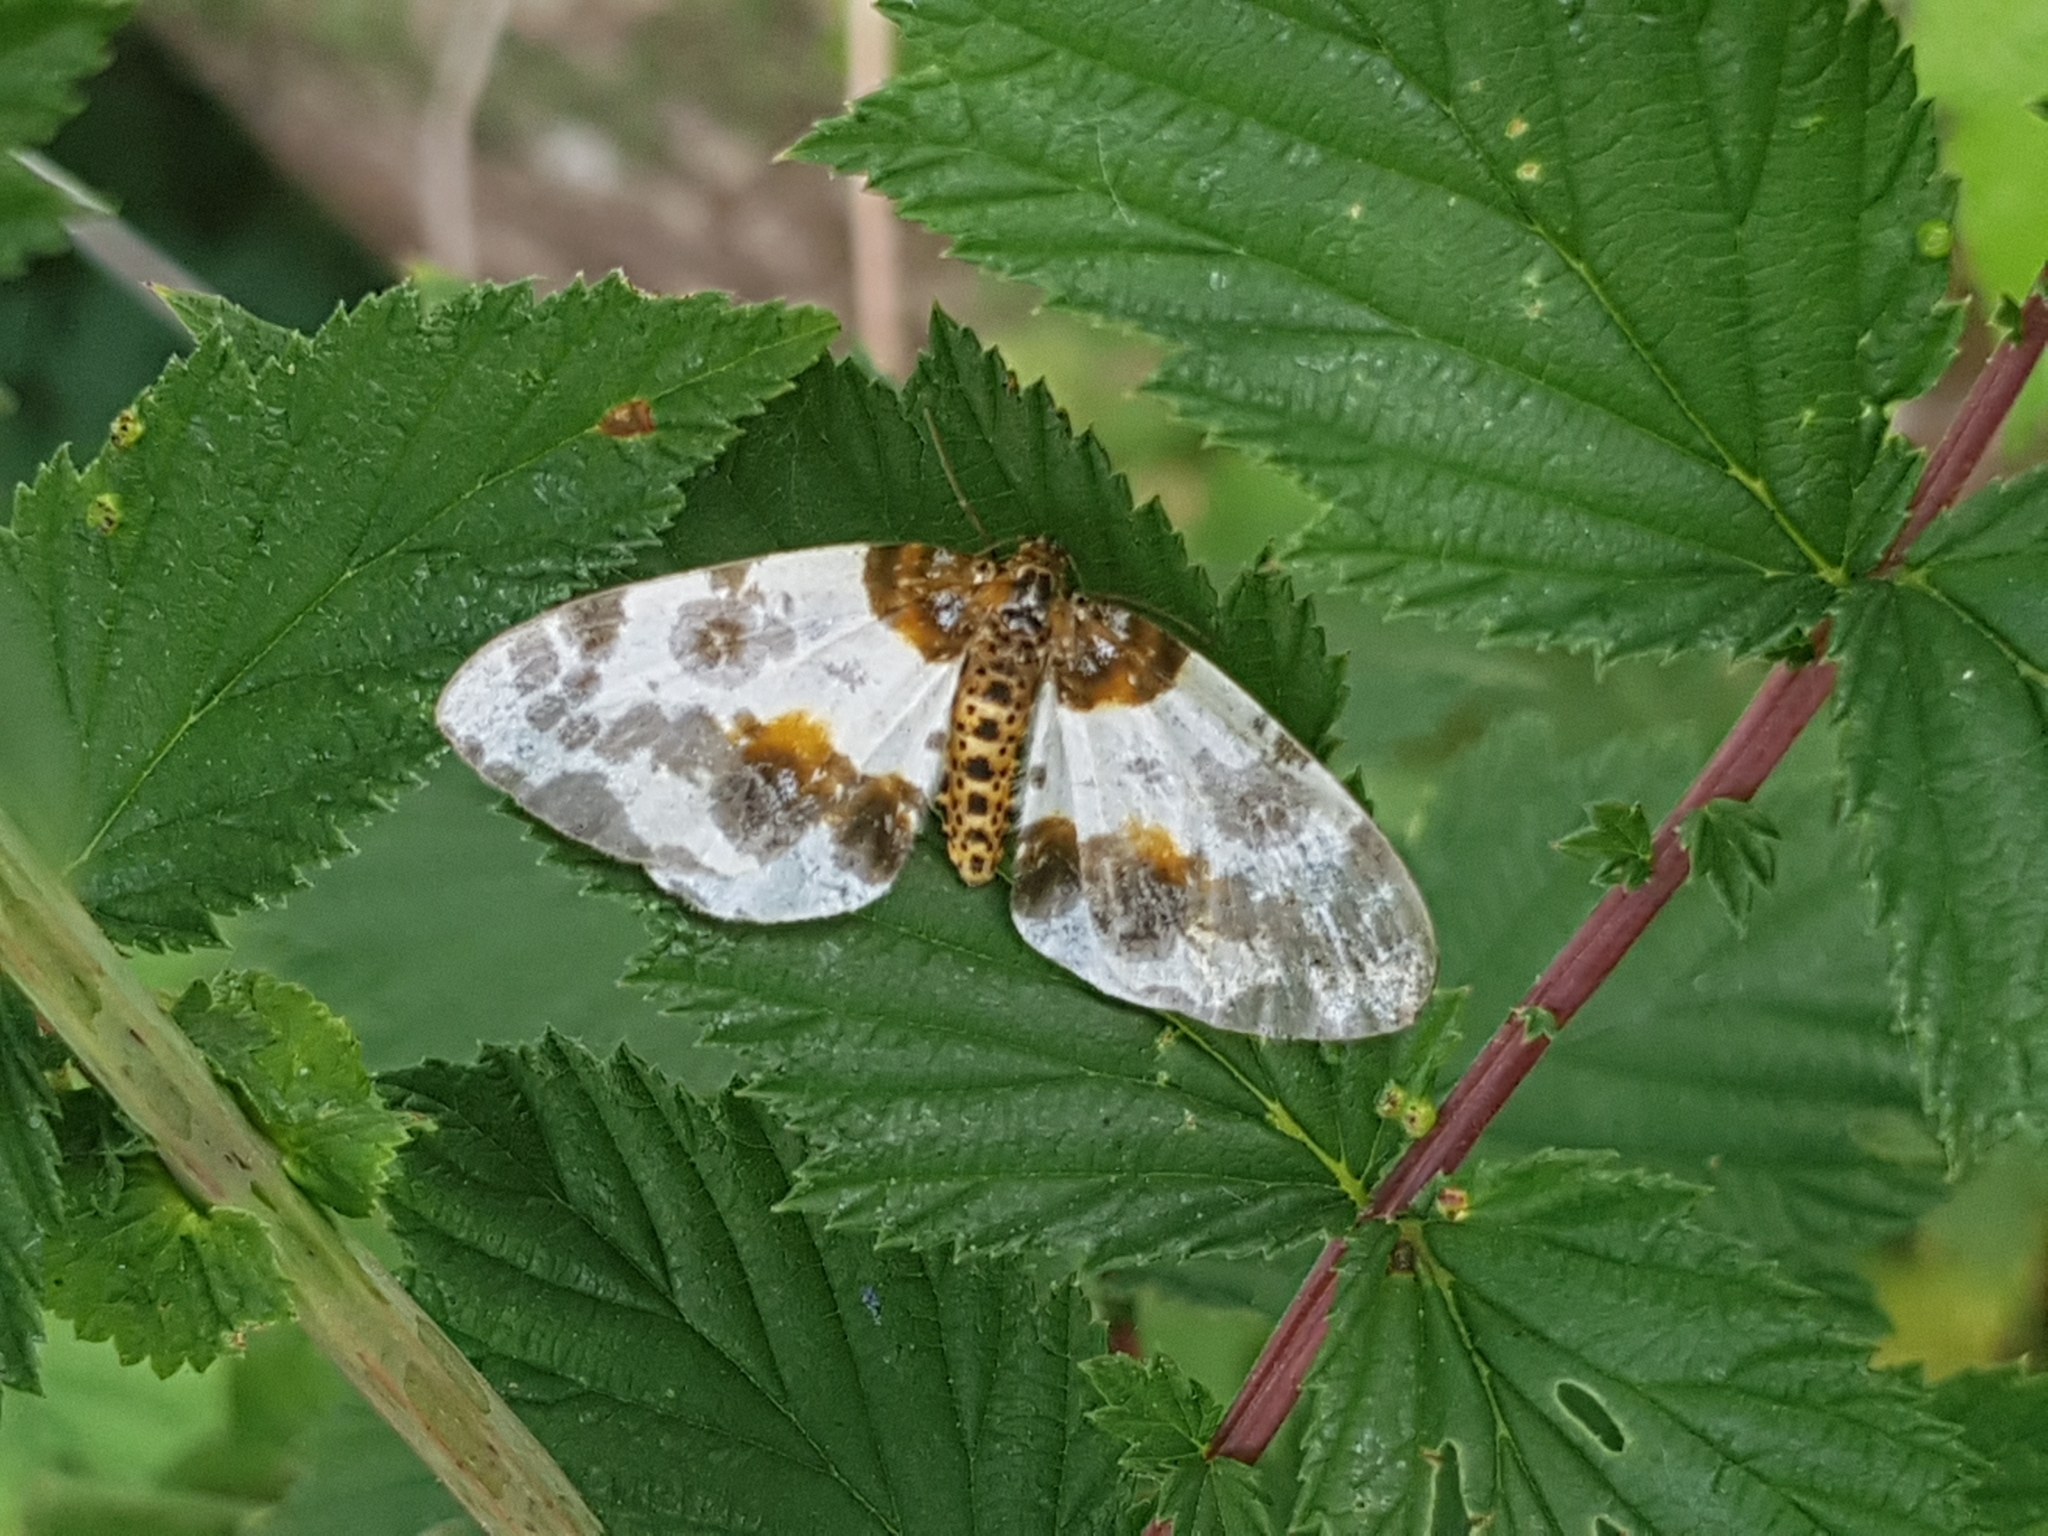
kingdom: Animalia
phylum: Arthropoda
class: Insecta
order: Lepidoptera
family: Geometridae
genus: Abraxas
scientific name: Abraxas sylvata
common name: Clouded magpie
